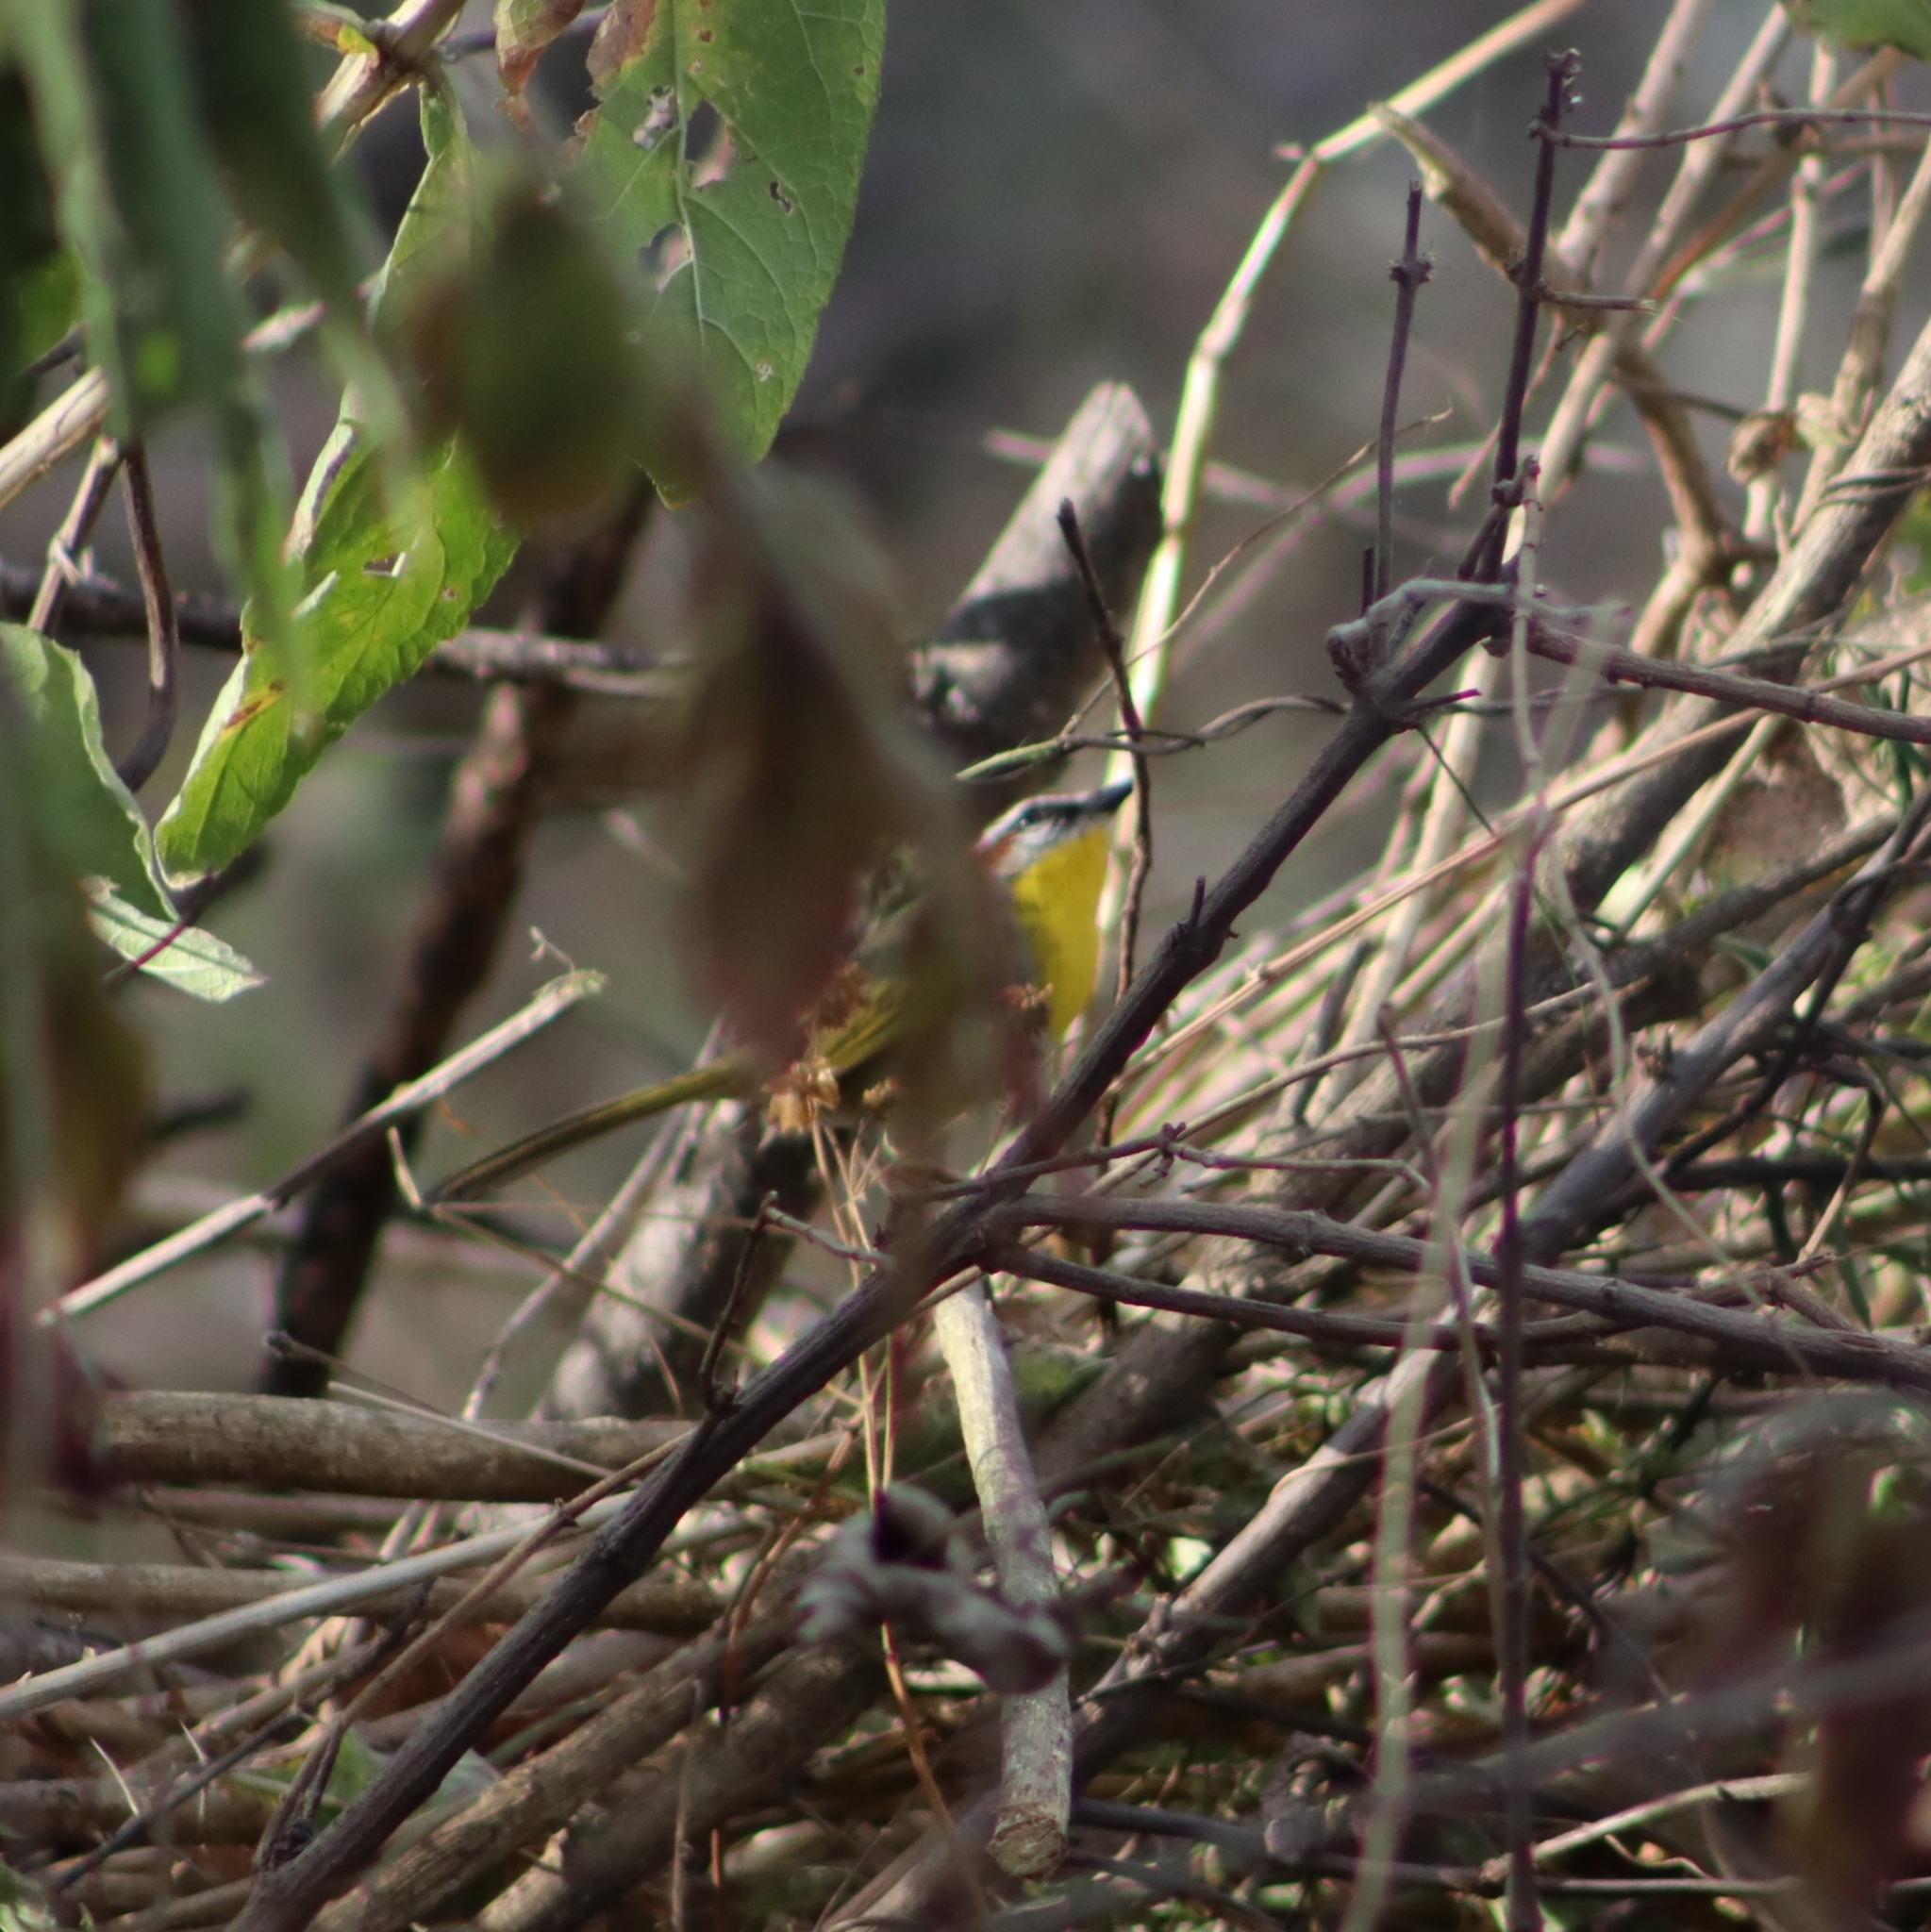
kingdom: Animalia
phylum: Chordata
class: Aves
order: Passeriformes
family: Parulidae
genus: Basileuterus
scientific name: Basileuterus rufifrons
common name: Rufous-capped warbler
